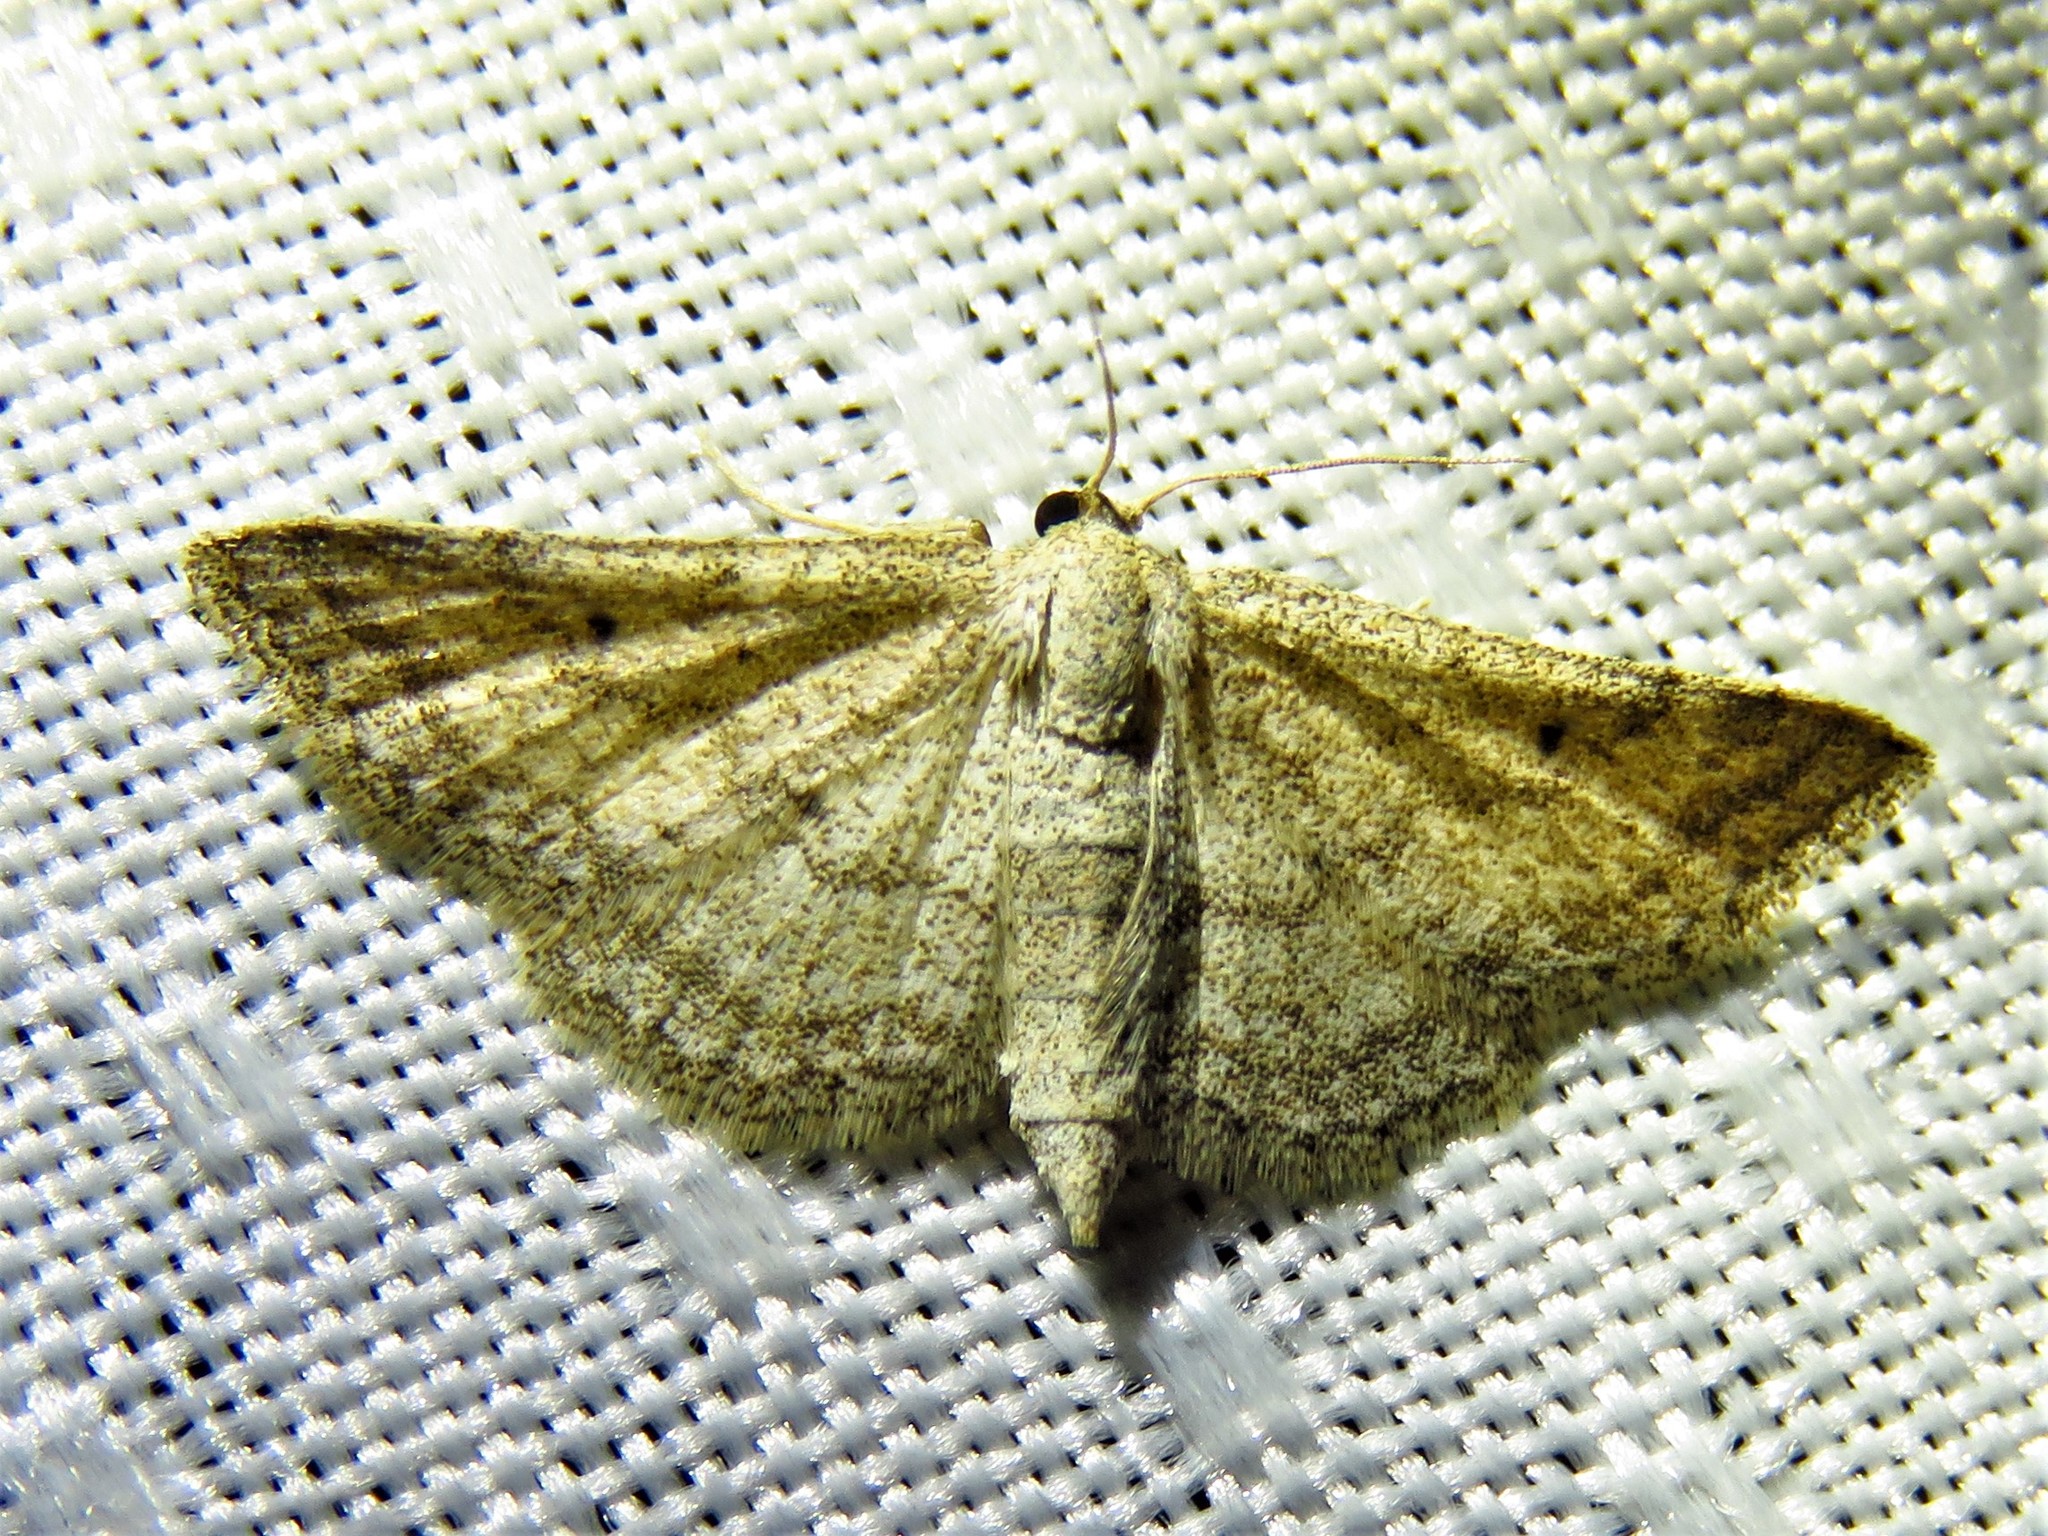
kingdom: Animalia
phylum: Arthropoda
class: Insecta
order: Lepidoptera
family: Geometridae
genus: Lobocleta
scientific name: Lobocleta ossularia
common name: Drab brown wave
